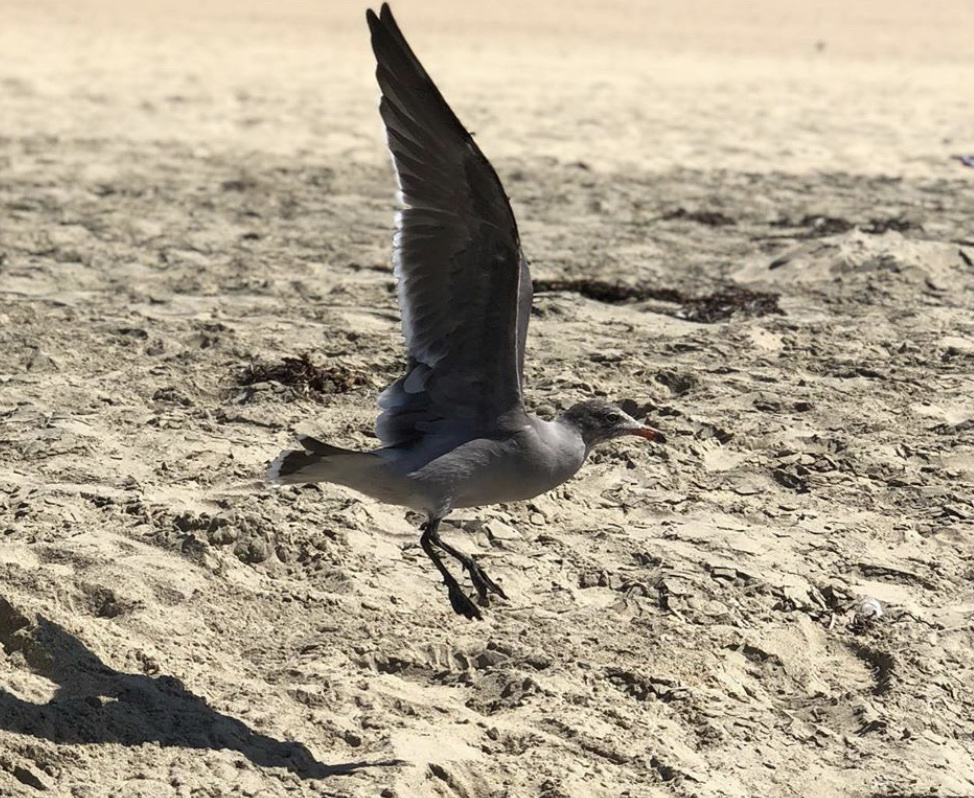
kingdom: Animalia
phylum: Chordata
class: Aves
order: Charadriiformes
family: Laridae
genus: Larus
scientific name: Larus heermanni
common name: Heermann's gull
